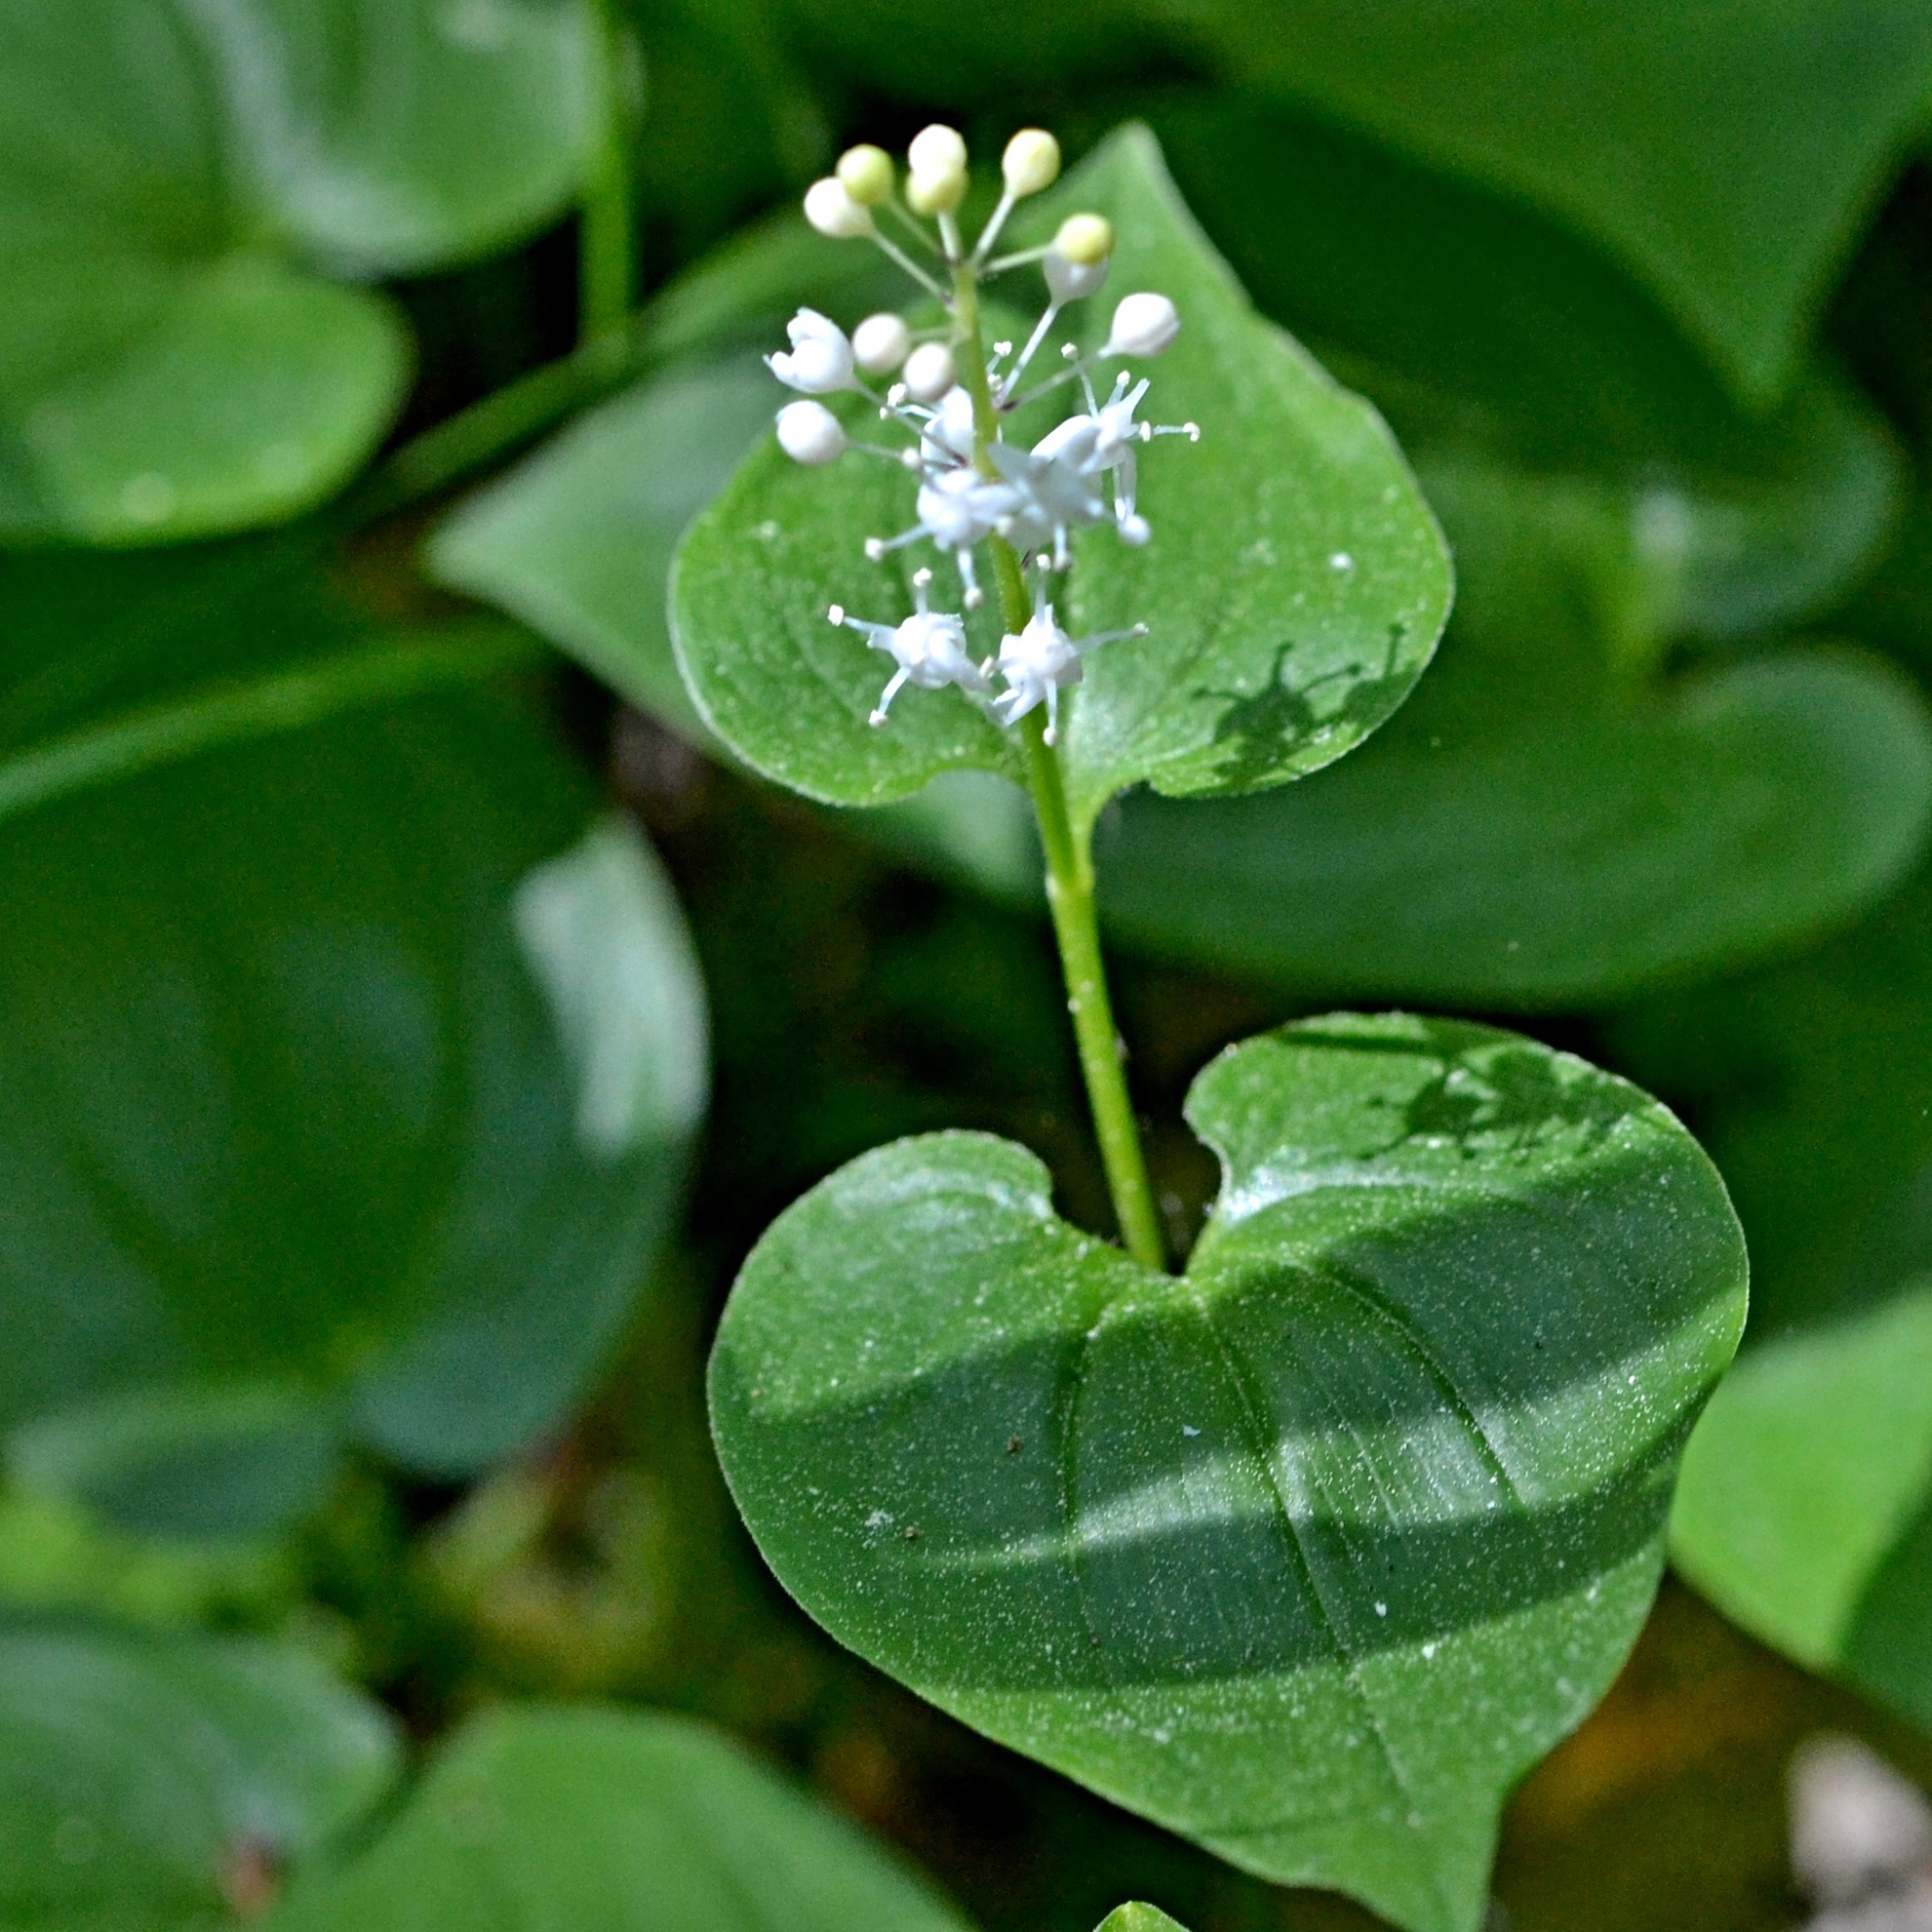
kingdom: Plantae
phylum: Tracheophyta
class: Liliopsida
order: Asparagales
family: Asparagaceae
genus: Maianthemum
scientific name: Maianthemum bifolium
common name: May lily
